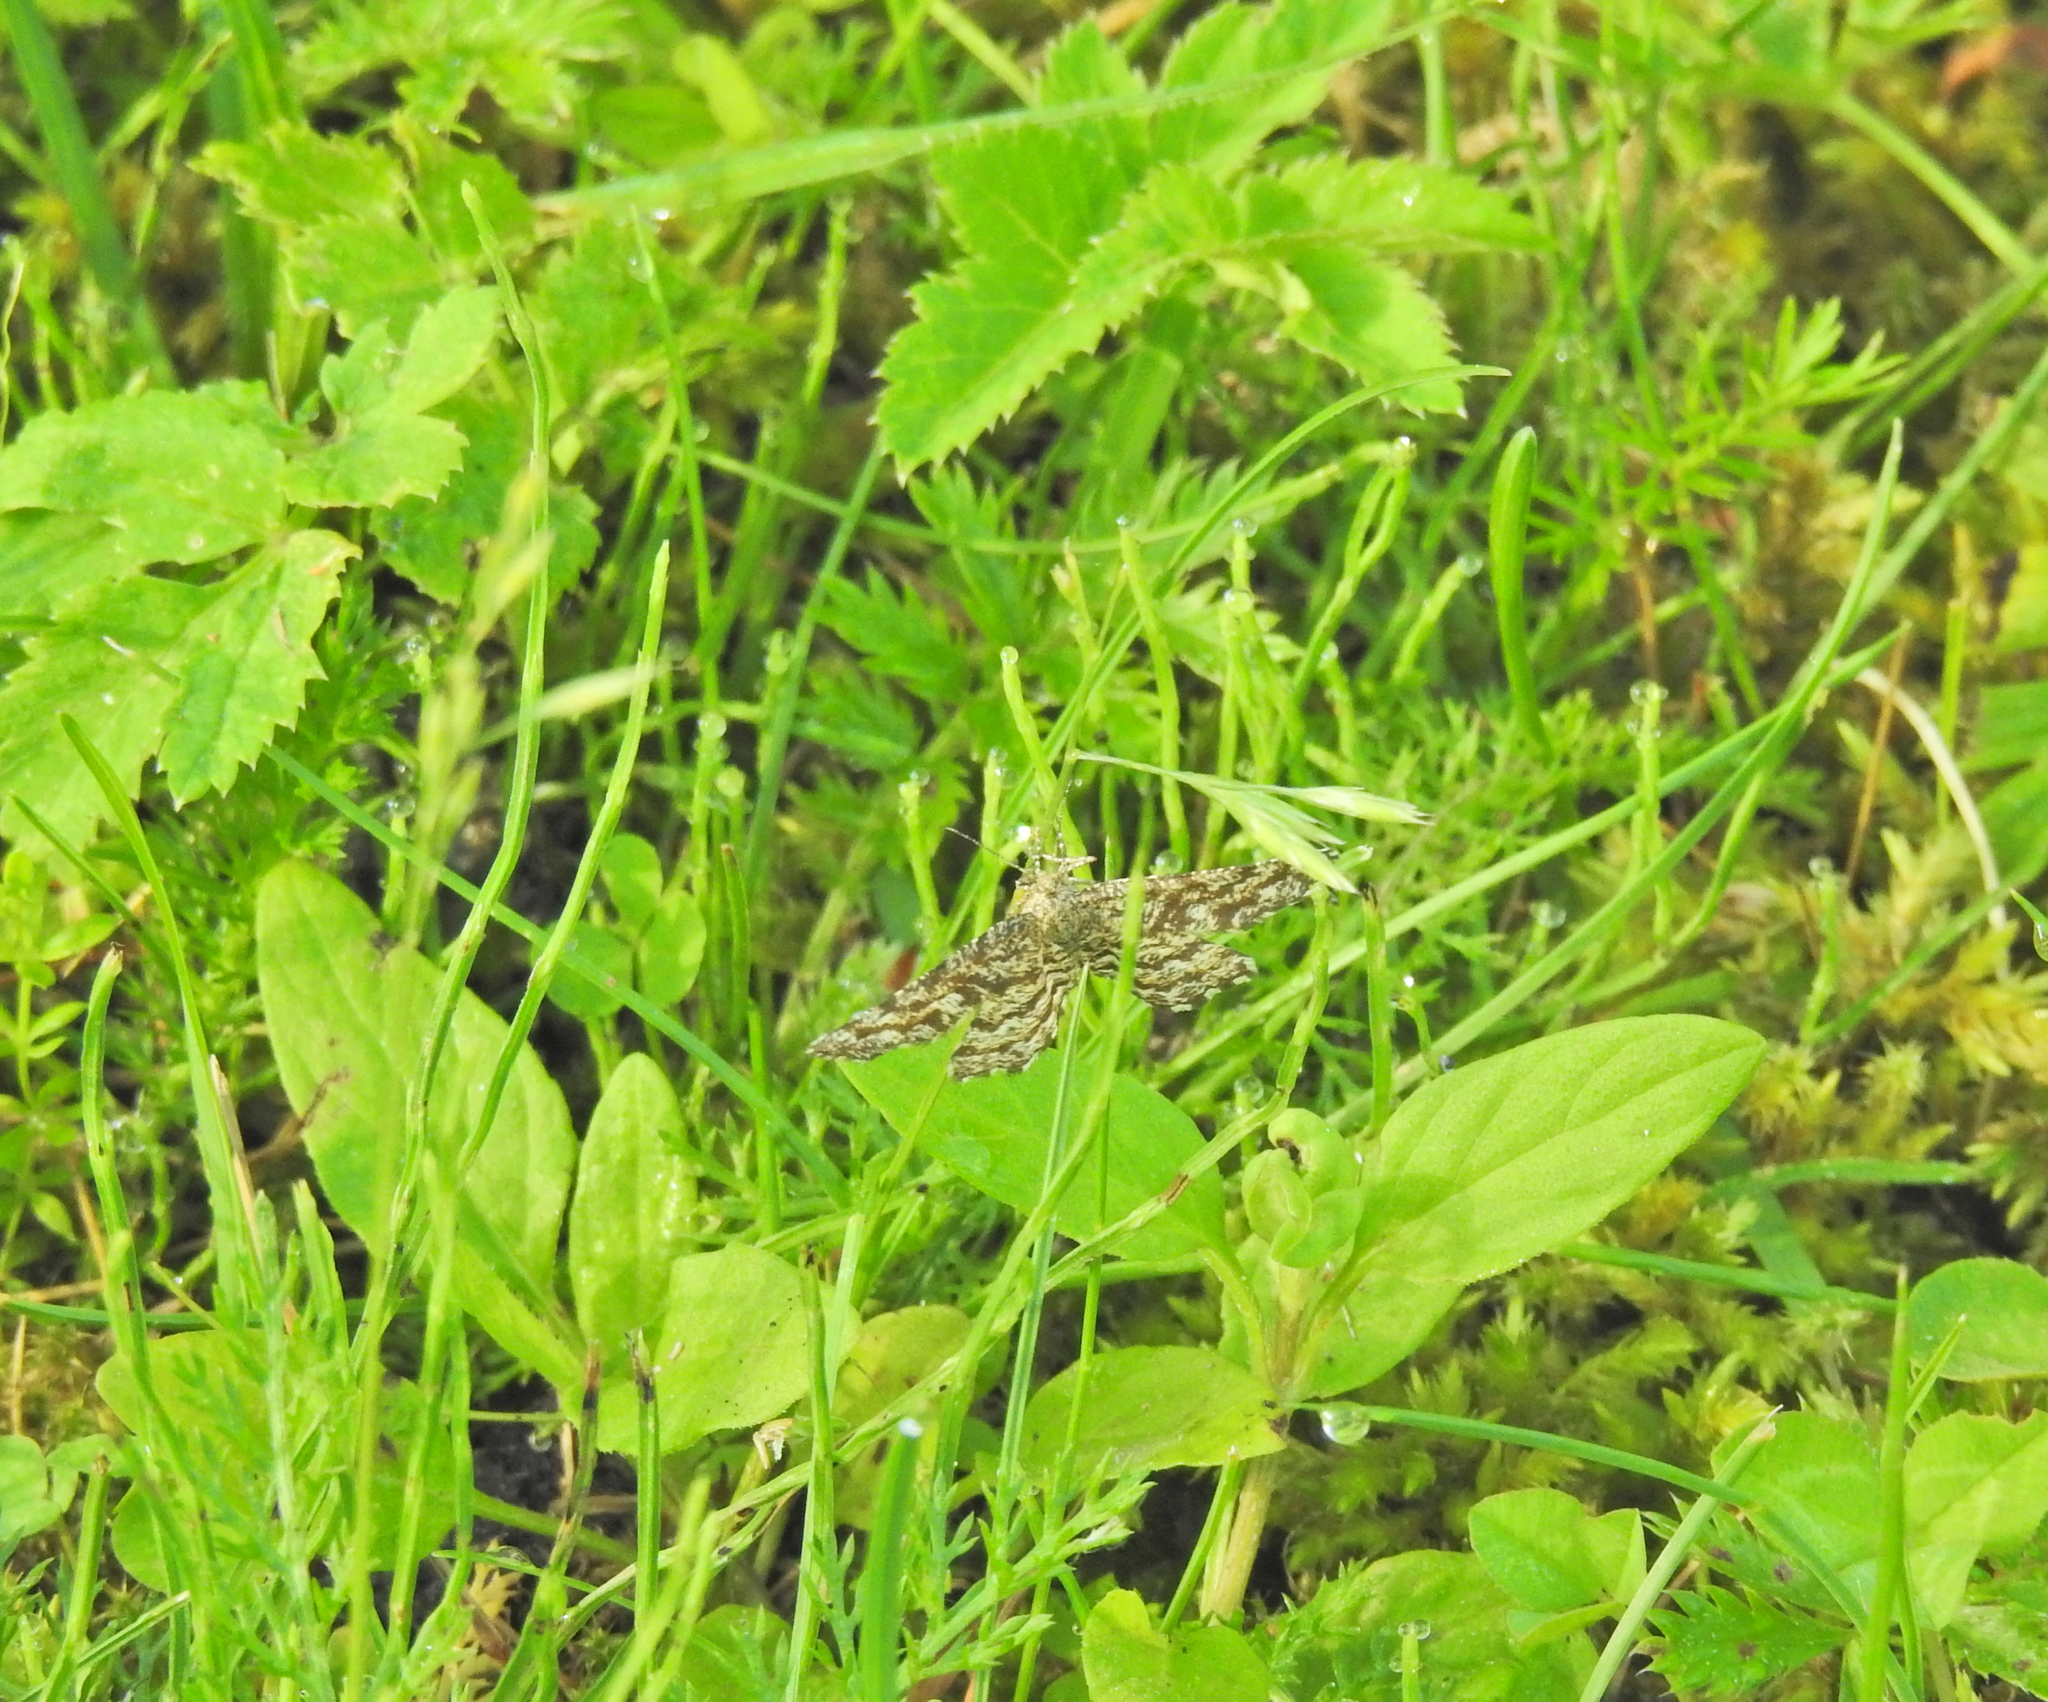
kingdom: Animalia
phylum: Arthropoda
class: Insecta
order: Lepidoptera
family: Geometridae
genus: Ematurga
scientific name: Ematurga atomaria
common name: Common heath
